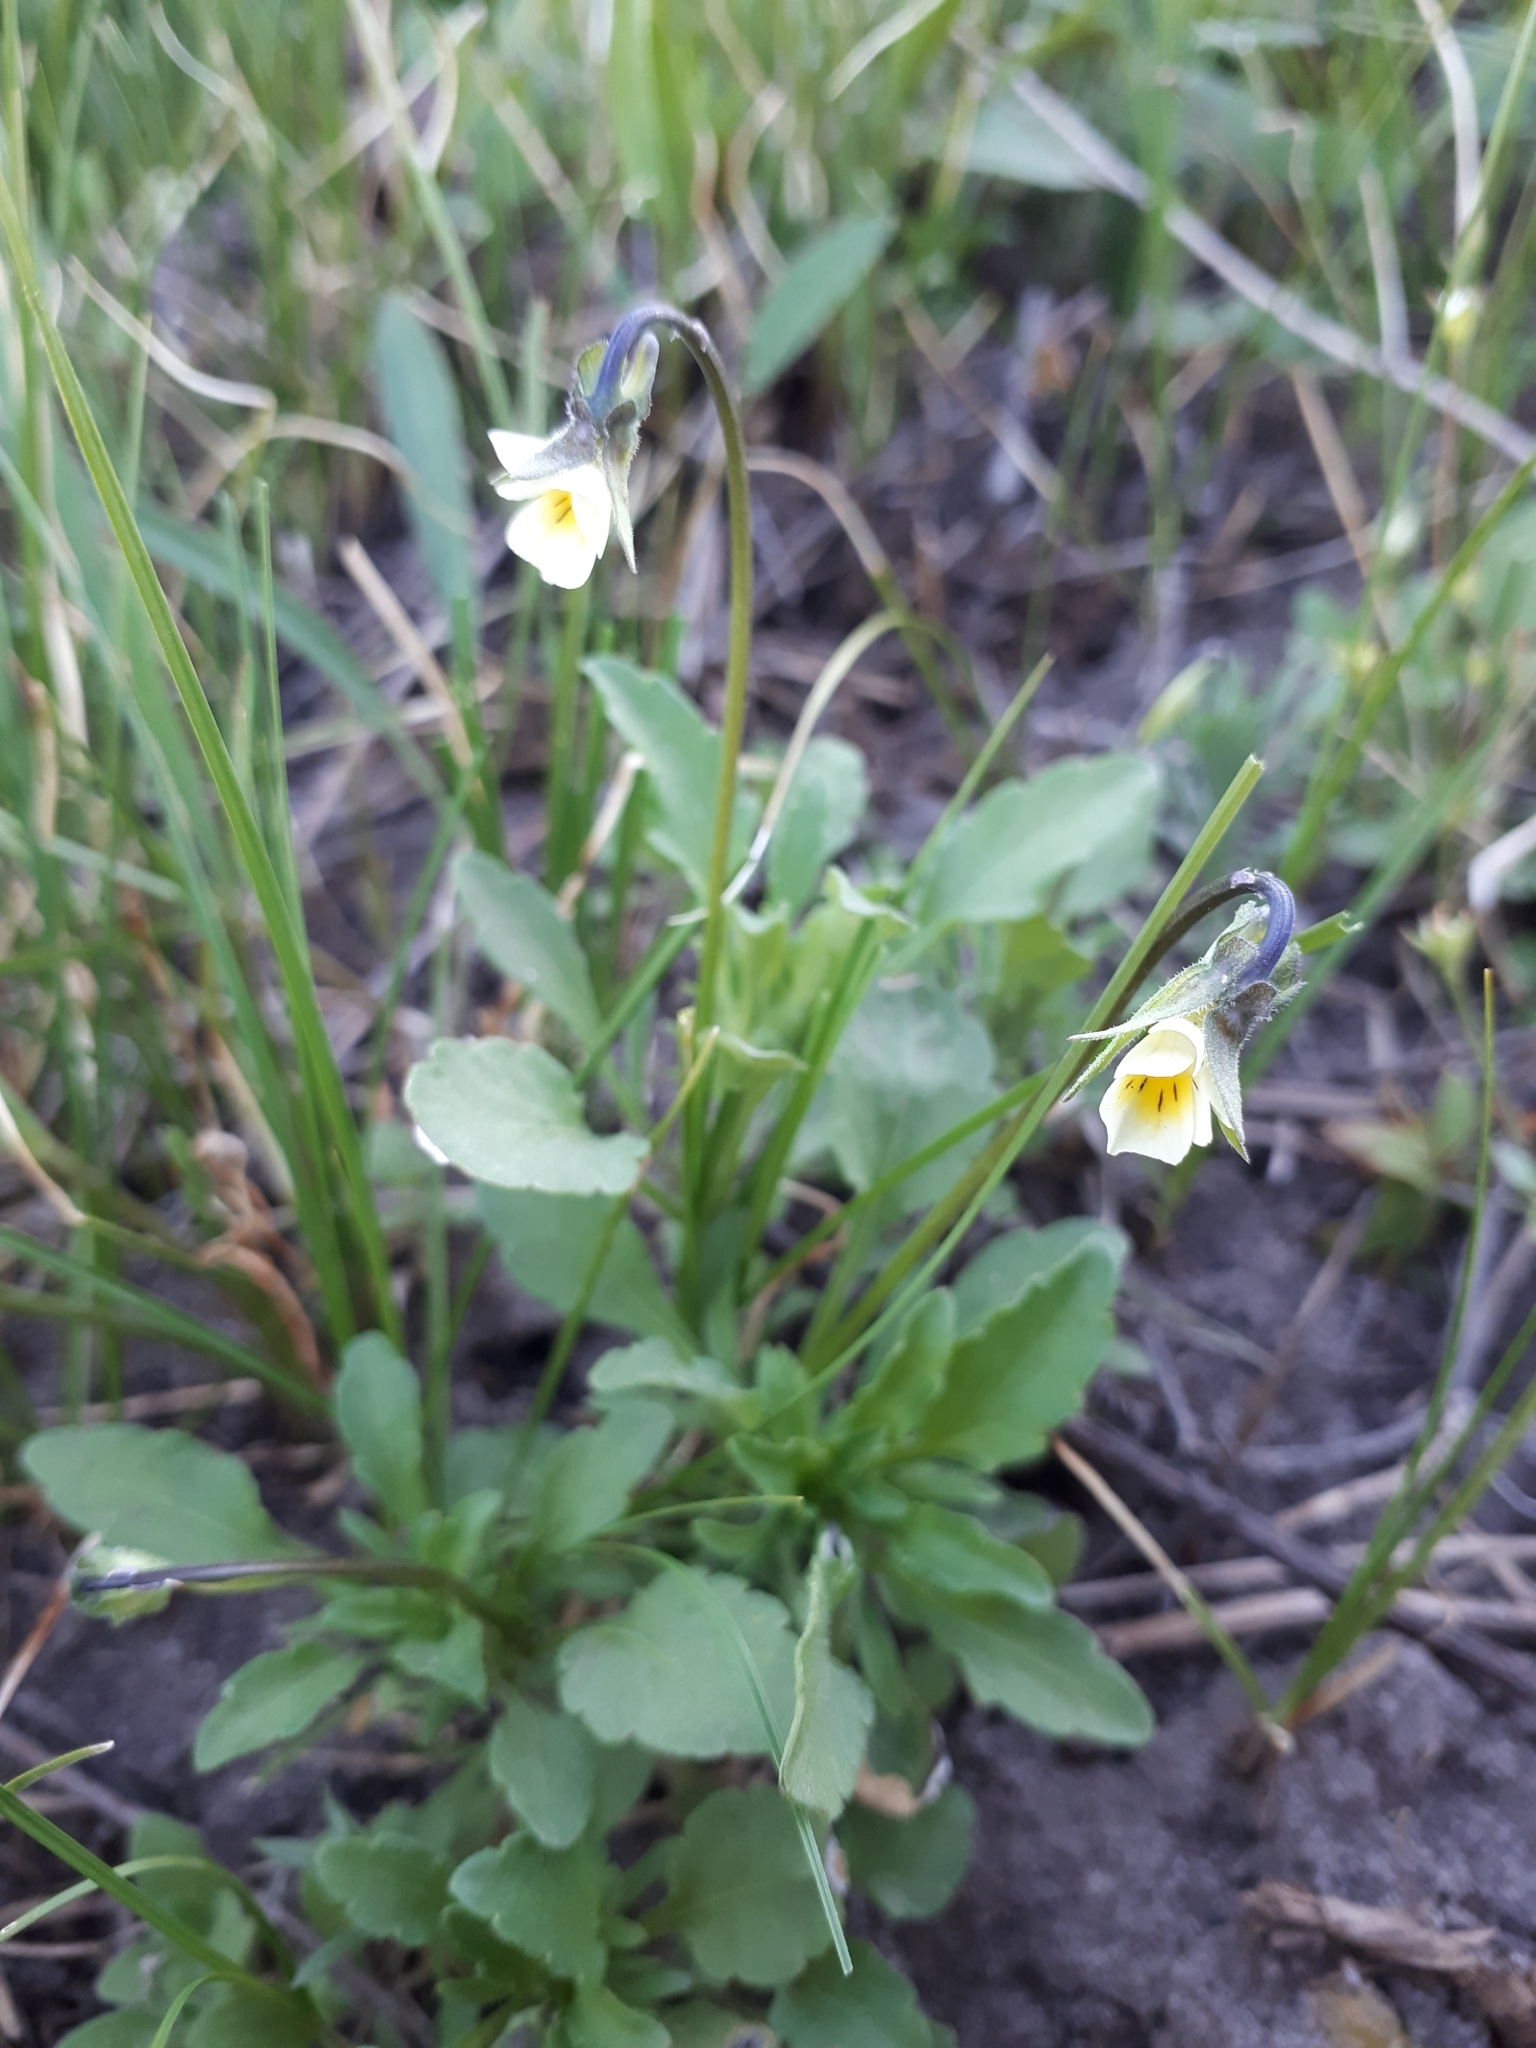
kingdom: Plantae
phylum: Tracheophyta
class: Magnoliopsida
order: Malpighiales
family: Violaceae
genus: Viola
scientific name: Viola arvensis
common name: Field pansy
